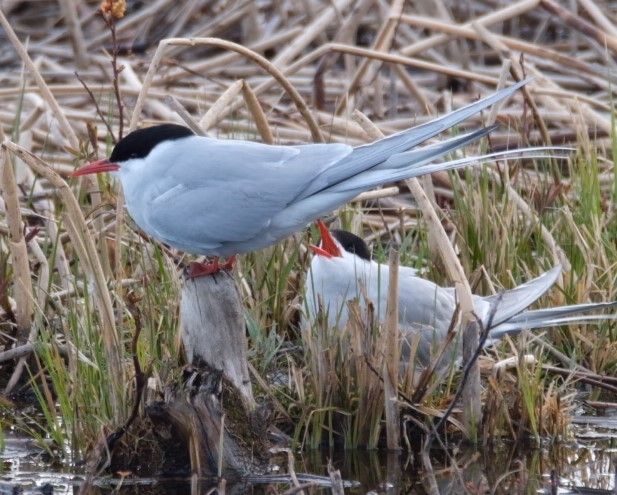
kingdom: Animalia
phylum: Chordata
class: Aves
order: Charadriiformes
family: Laridae
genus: Sterna
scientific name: Sterna paradisaea
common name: Arctic tern
